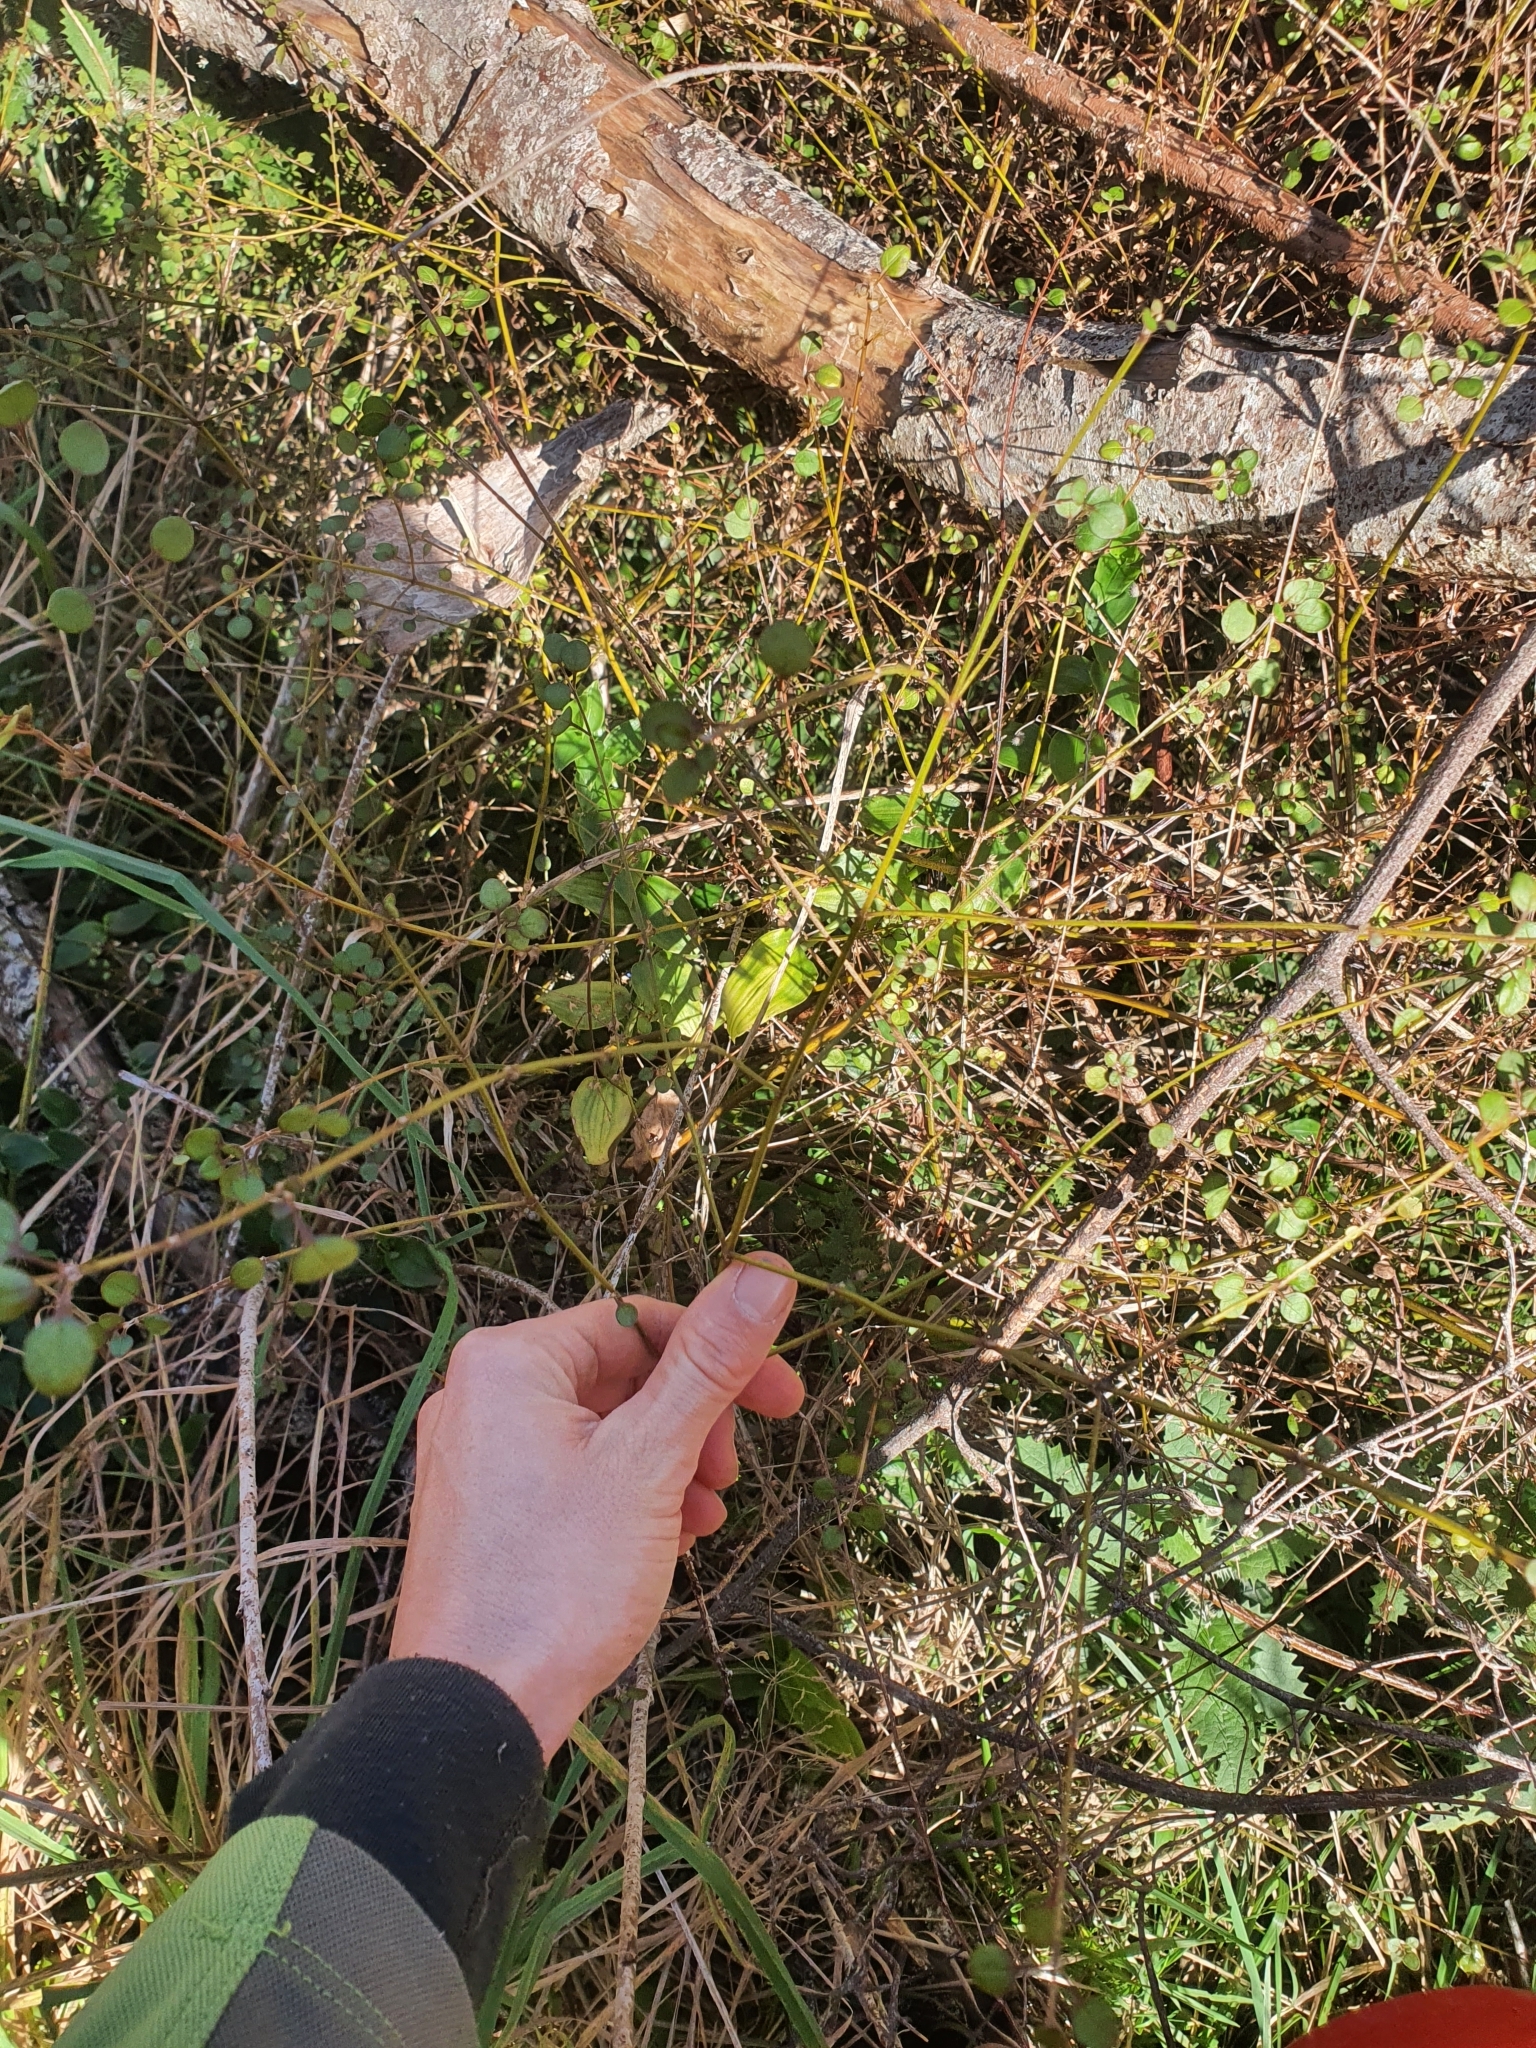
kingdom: Plantae
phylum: Tracheophyta
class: Magnoliopsida
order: Lamiales
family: Lamiaceae
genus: Teucrium
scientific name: Teucrium parvifolium
